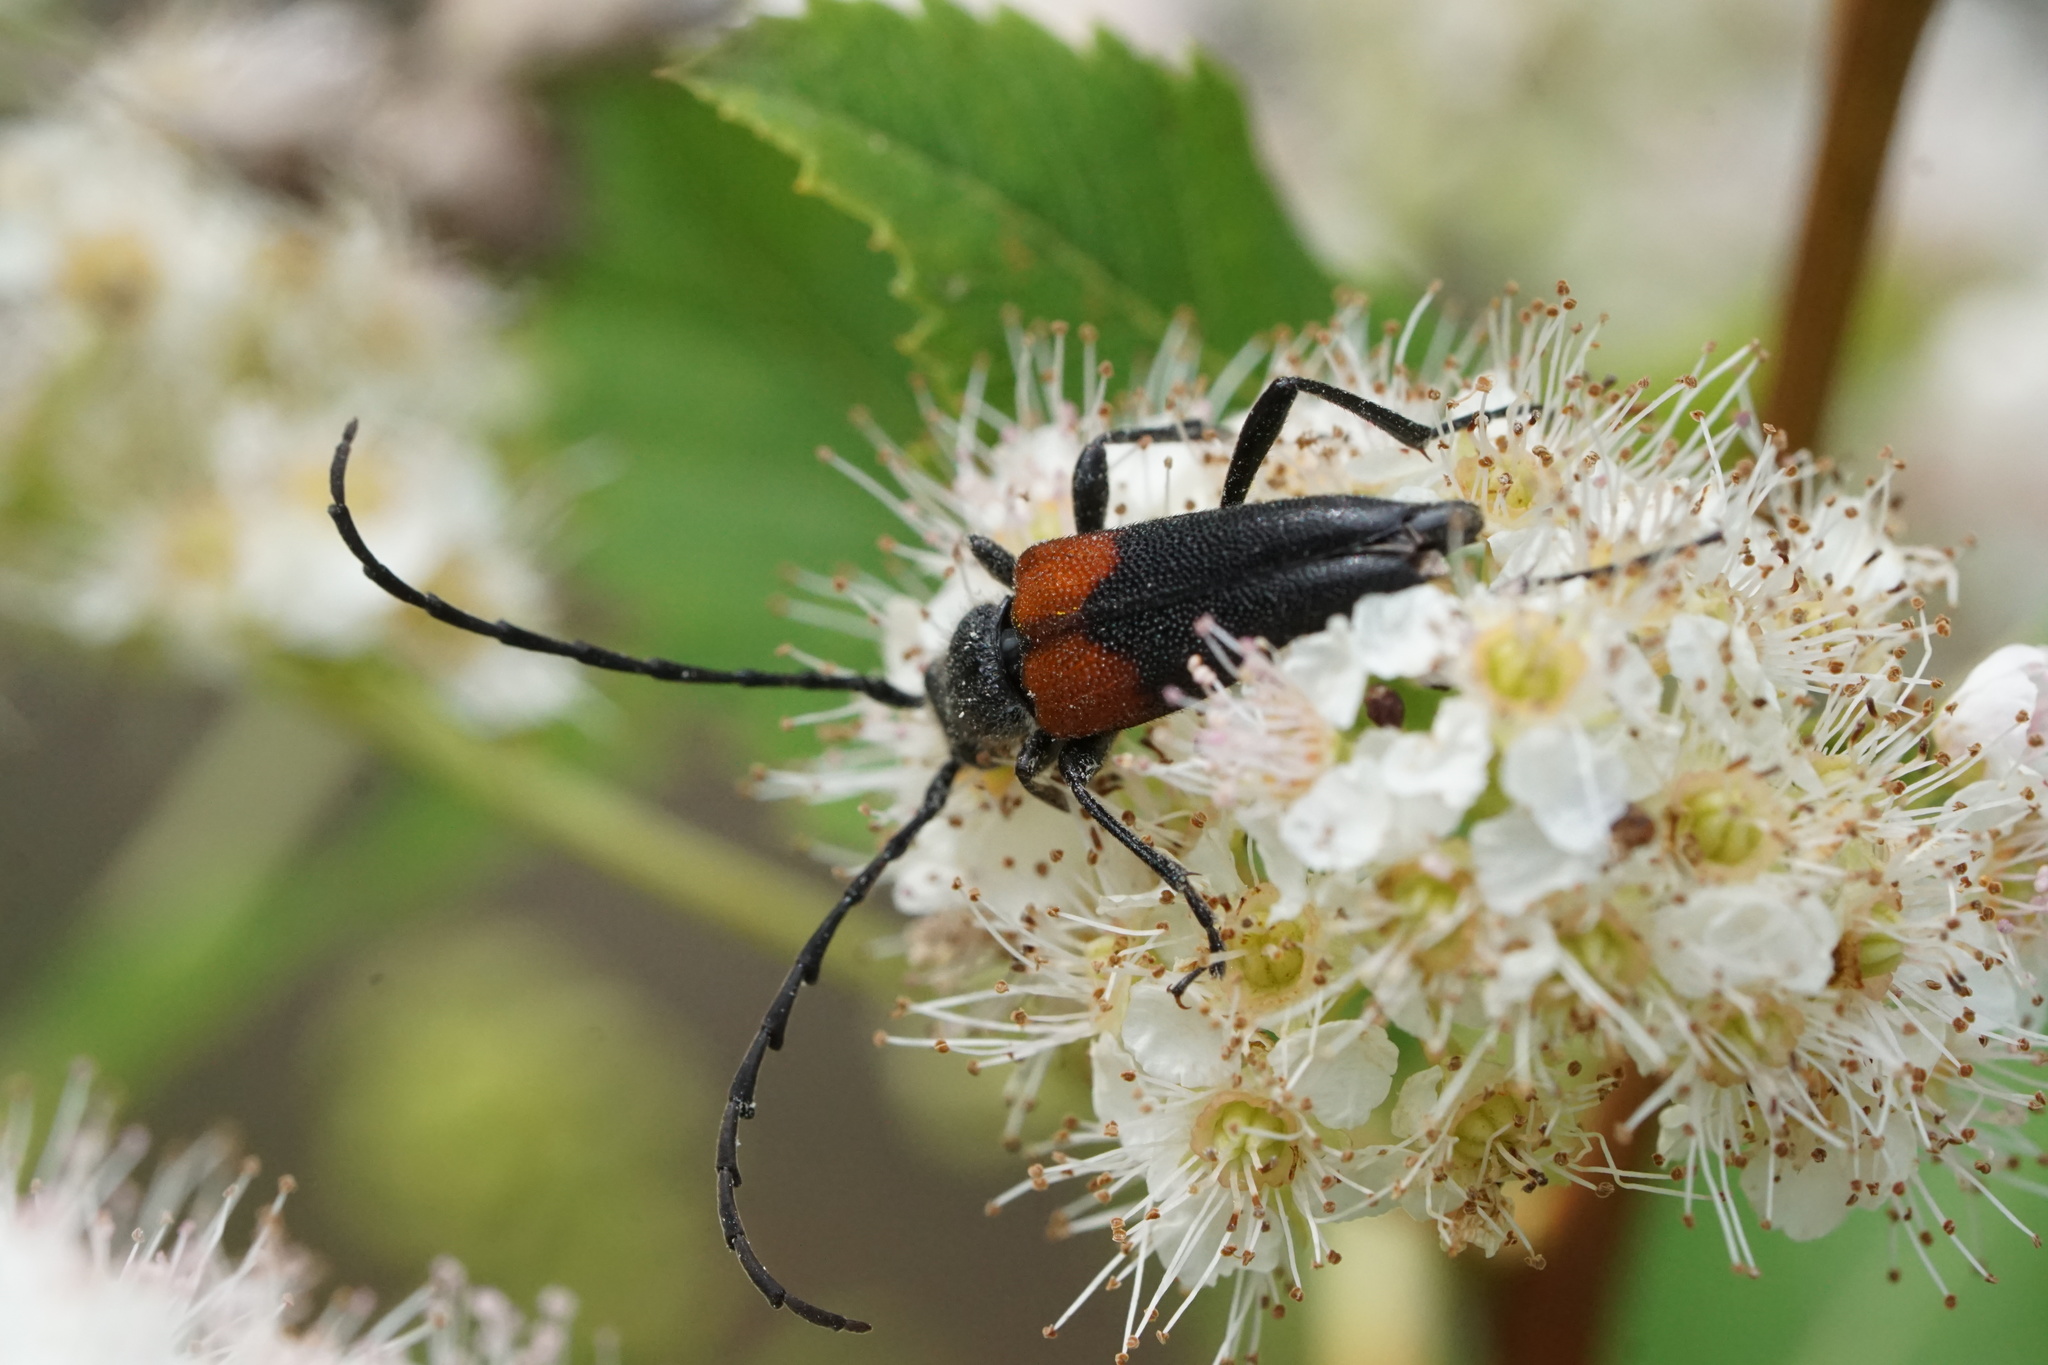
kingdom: Animalia
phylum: Arthropoda
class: Insecta
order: Coleoptera
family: Cerambycidae
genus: Stictoleptura
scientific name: Stictoleptura canadensis
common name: Red-shouldered pine borer
